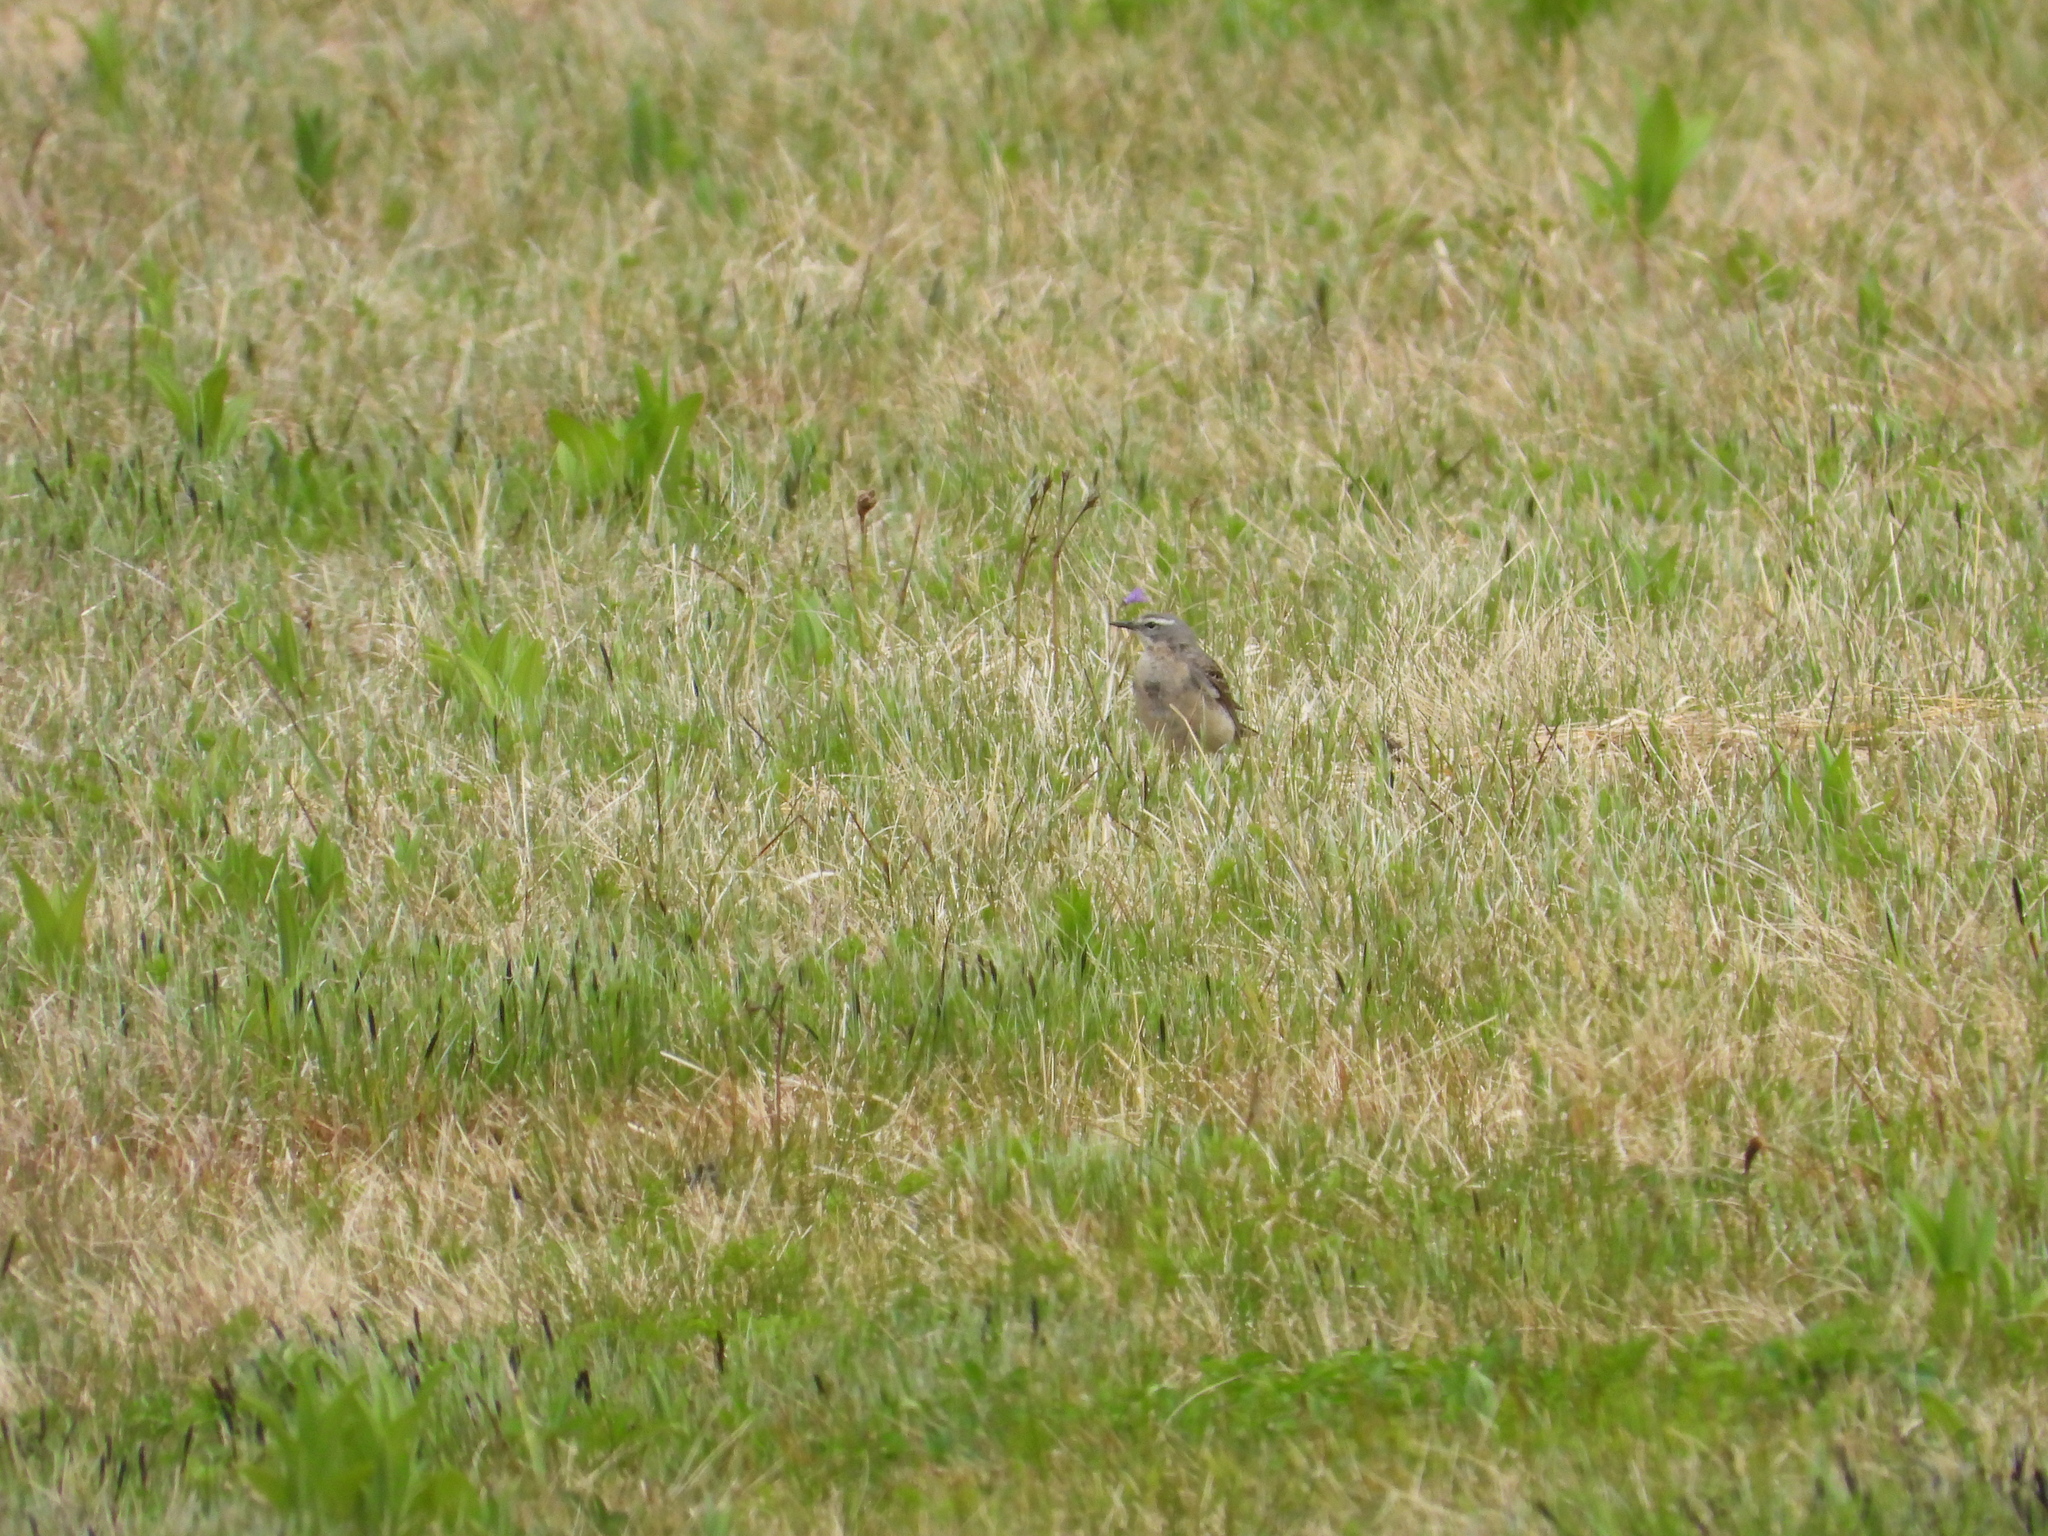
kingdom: Animalia
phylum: Chordata
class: Aves
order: Passeriformes
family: Motacillidae
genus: Anthus
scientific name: Anthus spinoletta
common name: Water pipit
